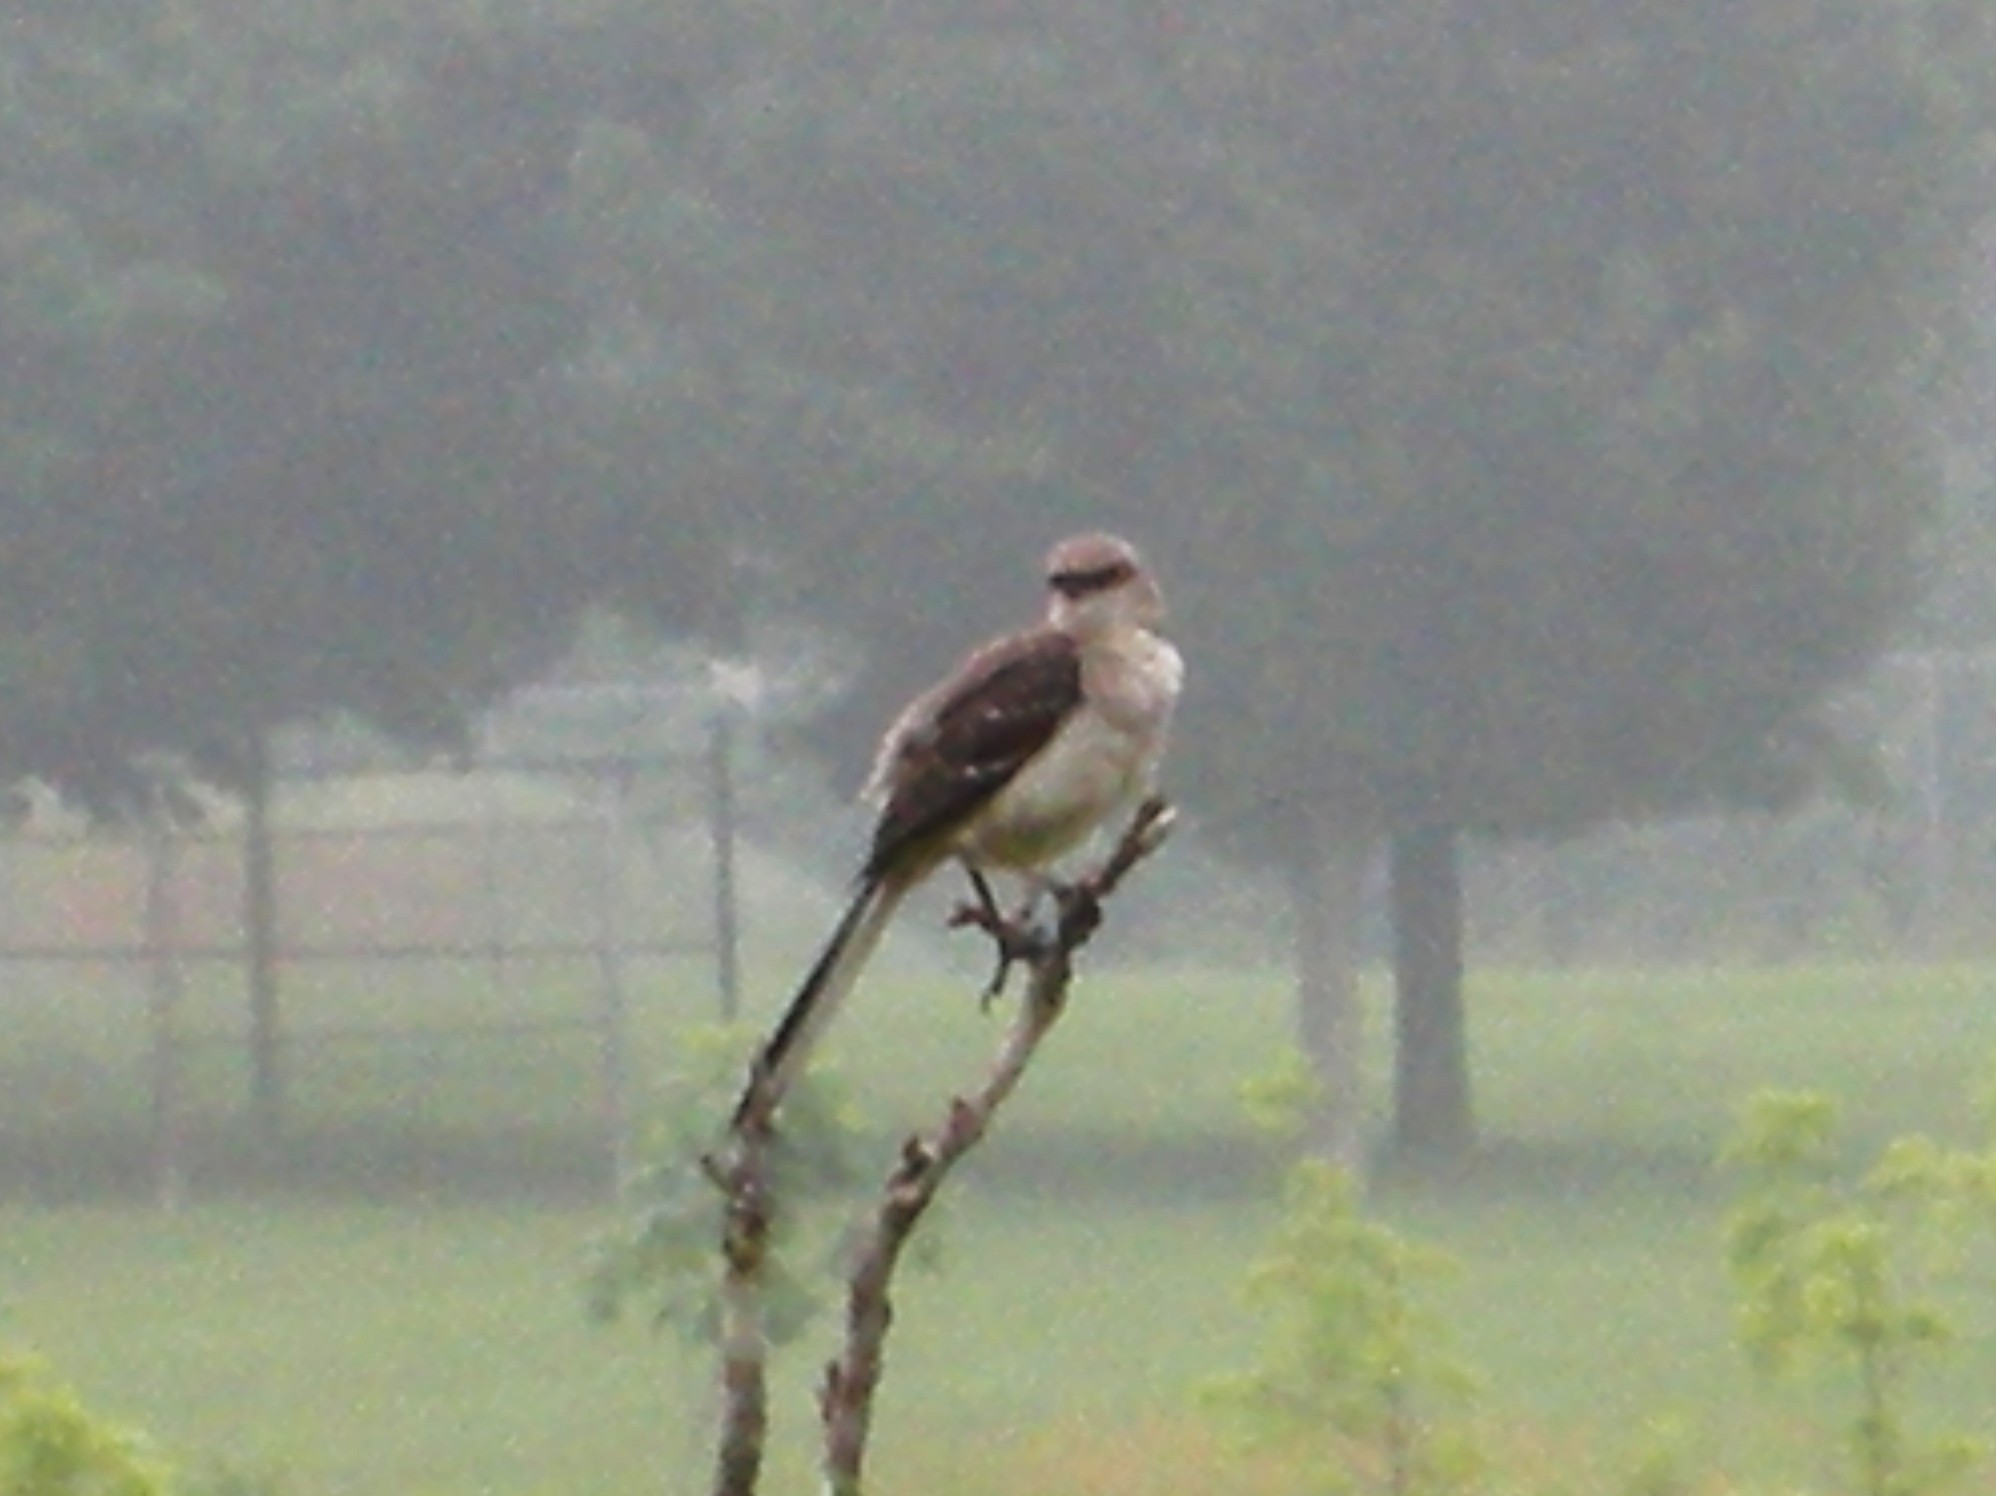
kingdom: Animalia
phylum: Chordata
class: Aves
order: Passeriformes
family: Mimidae
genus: Mimus
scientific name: Mimus polyglottos
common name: Northern mockingbird
